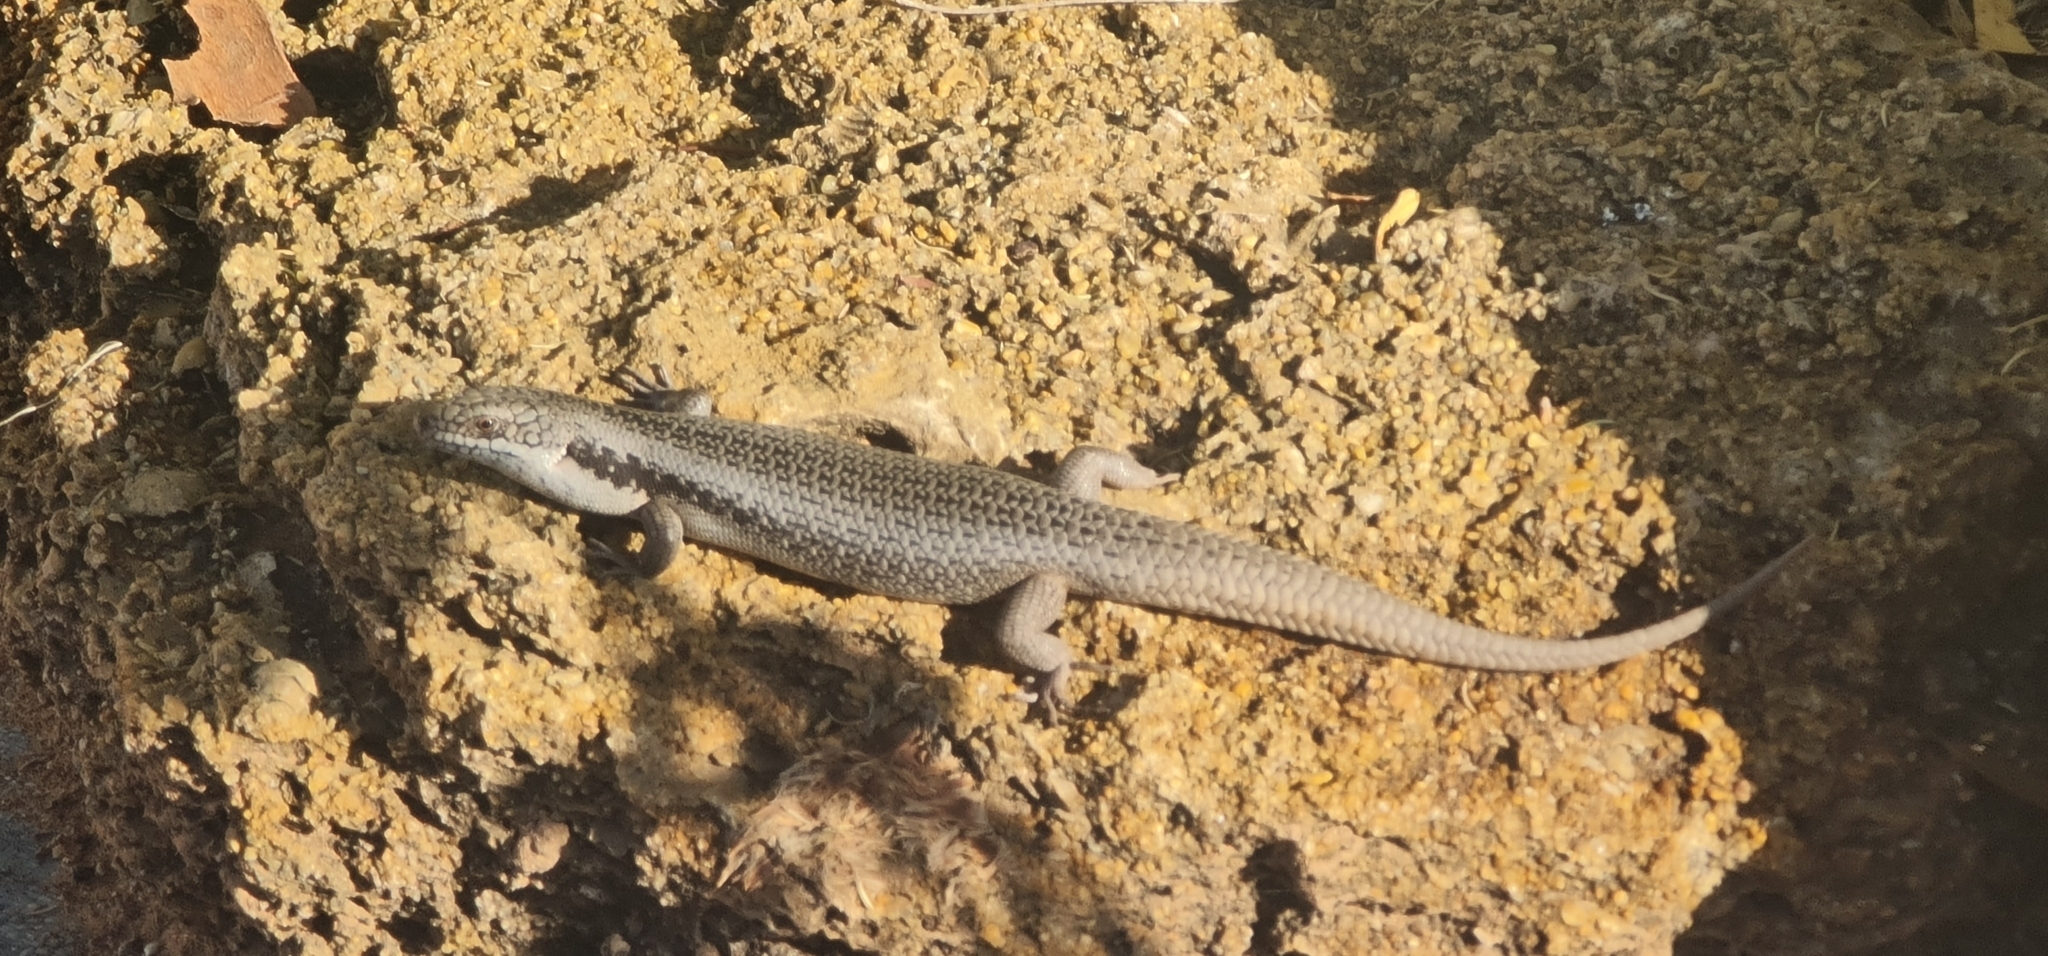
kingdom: Animalia
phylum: Chordata
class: Squamata
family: Scincidae
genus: Egernia
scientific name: Egernia striolata
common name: Tree skink
